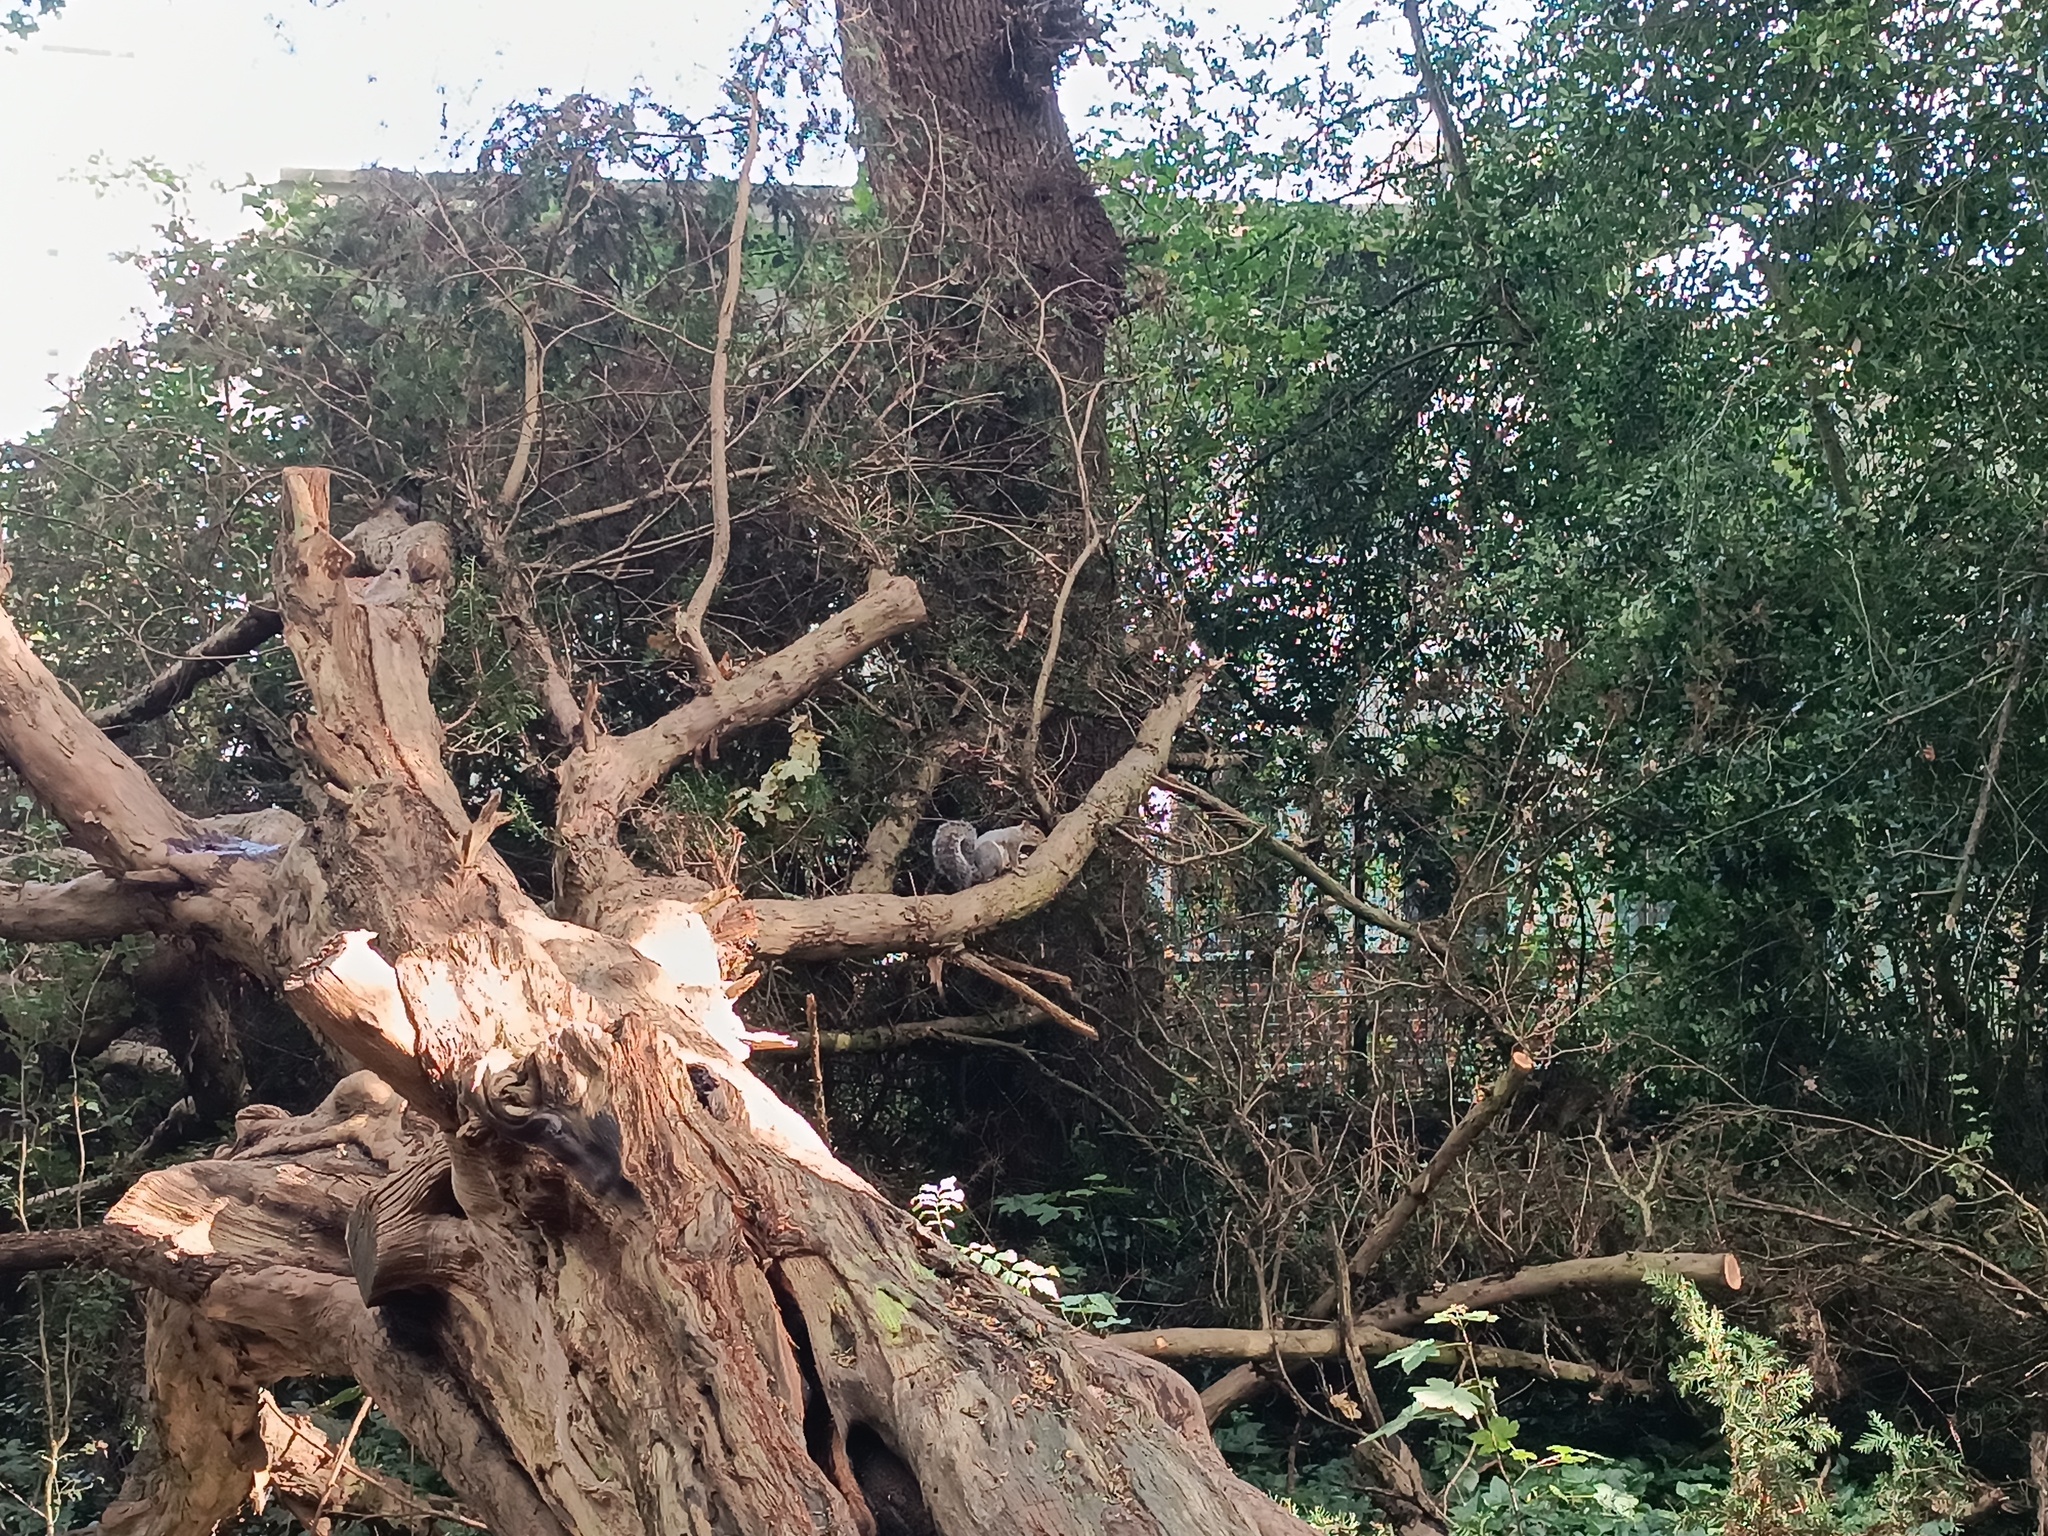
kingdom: Animalia
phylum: Chordata
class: Mammalia
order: Rodentia
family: Sciuridae
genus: Sciurus
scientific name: Sciurus carolinensis
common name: Eastern gray squirrel
